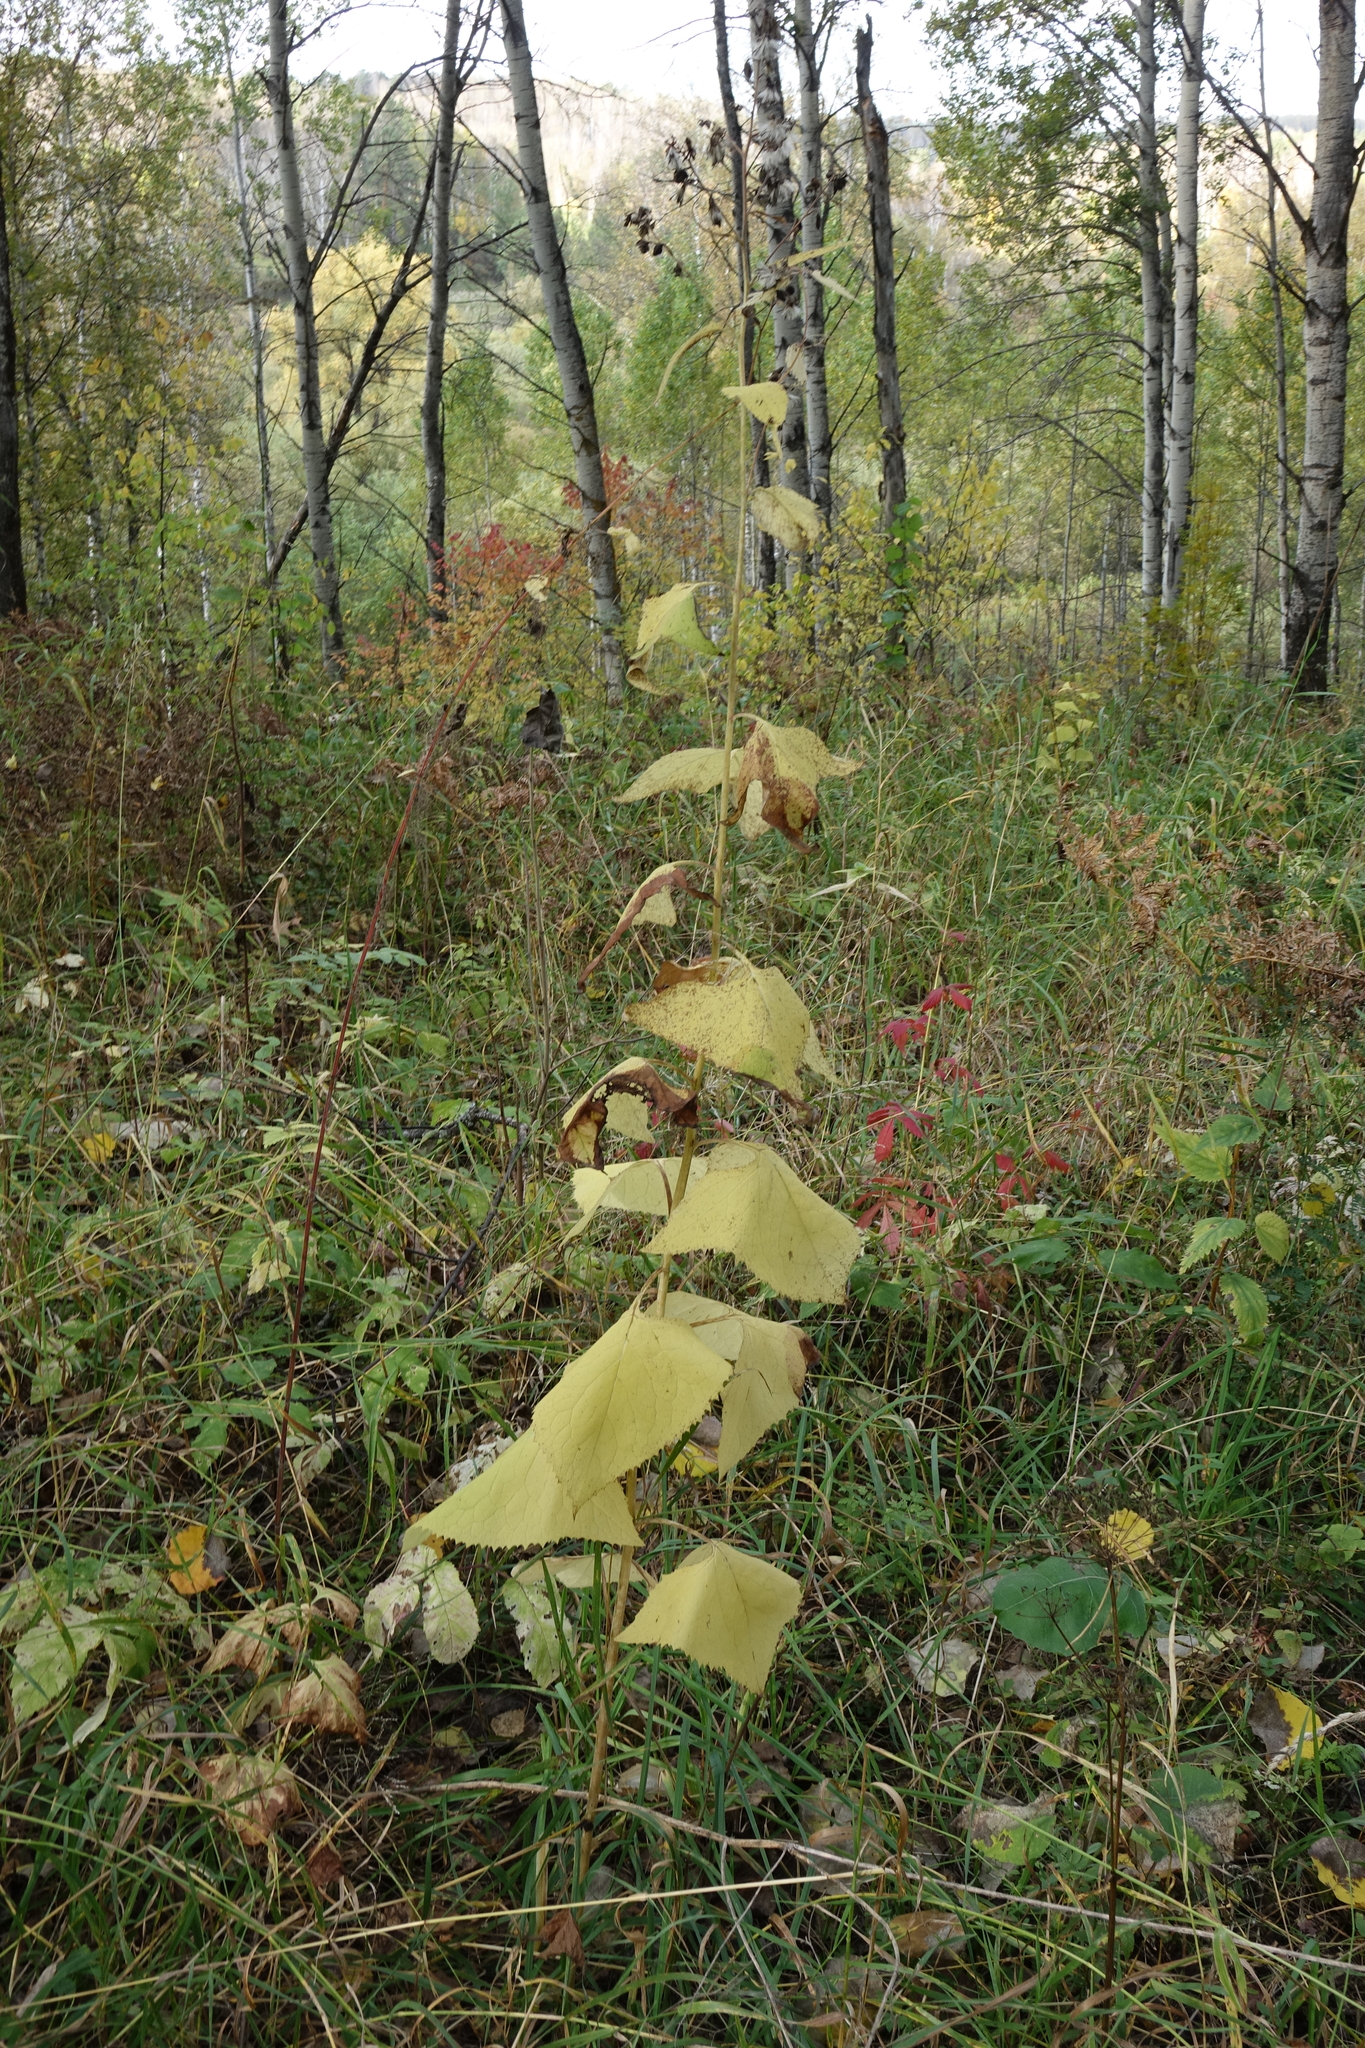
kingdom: Plantae
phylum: Tracheophyta
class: Magnoliopsida
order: Asterales
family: Asteraceae
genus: Parasenecio
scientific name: Parasenecio hastatus
